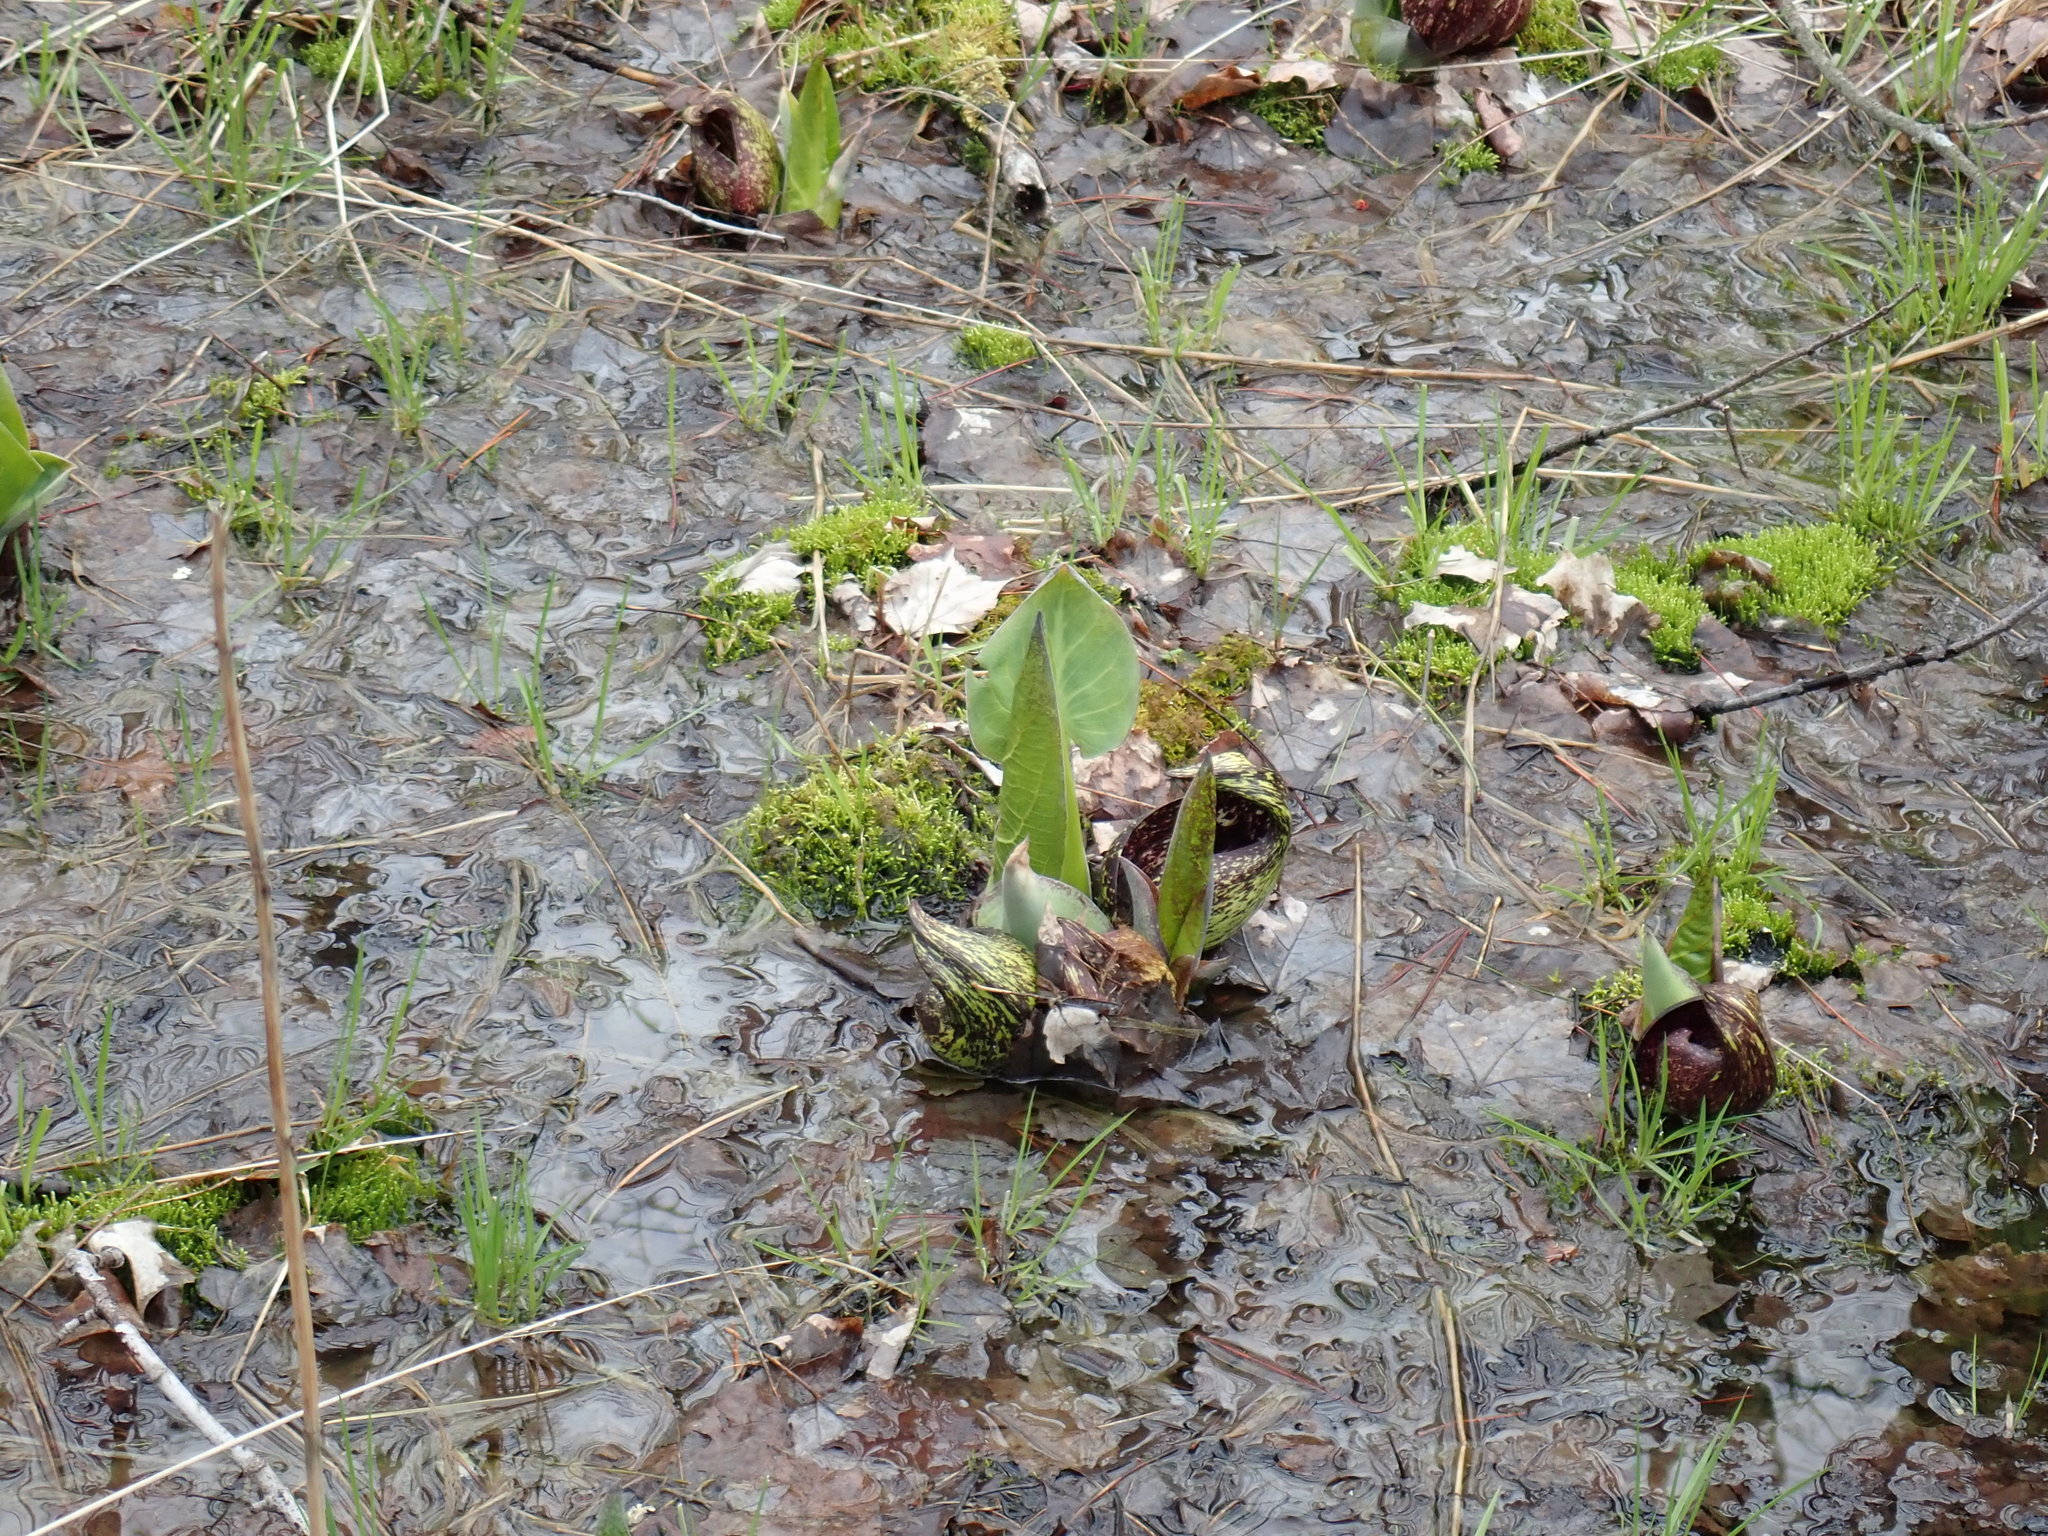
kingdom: Plantae
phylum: Tracheophyta
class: Liliopsida
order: Alismatales
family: Araceae
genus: Symplocarpus
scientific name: Symplocarpus foetidus
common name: Eastern skunk cabbage
